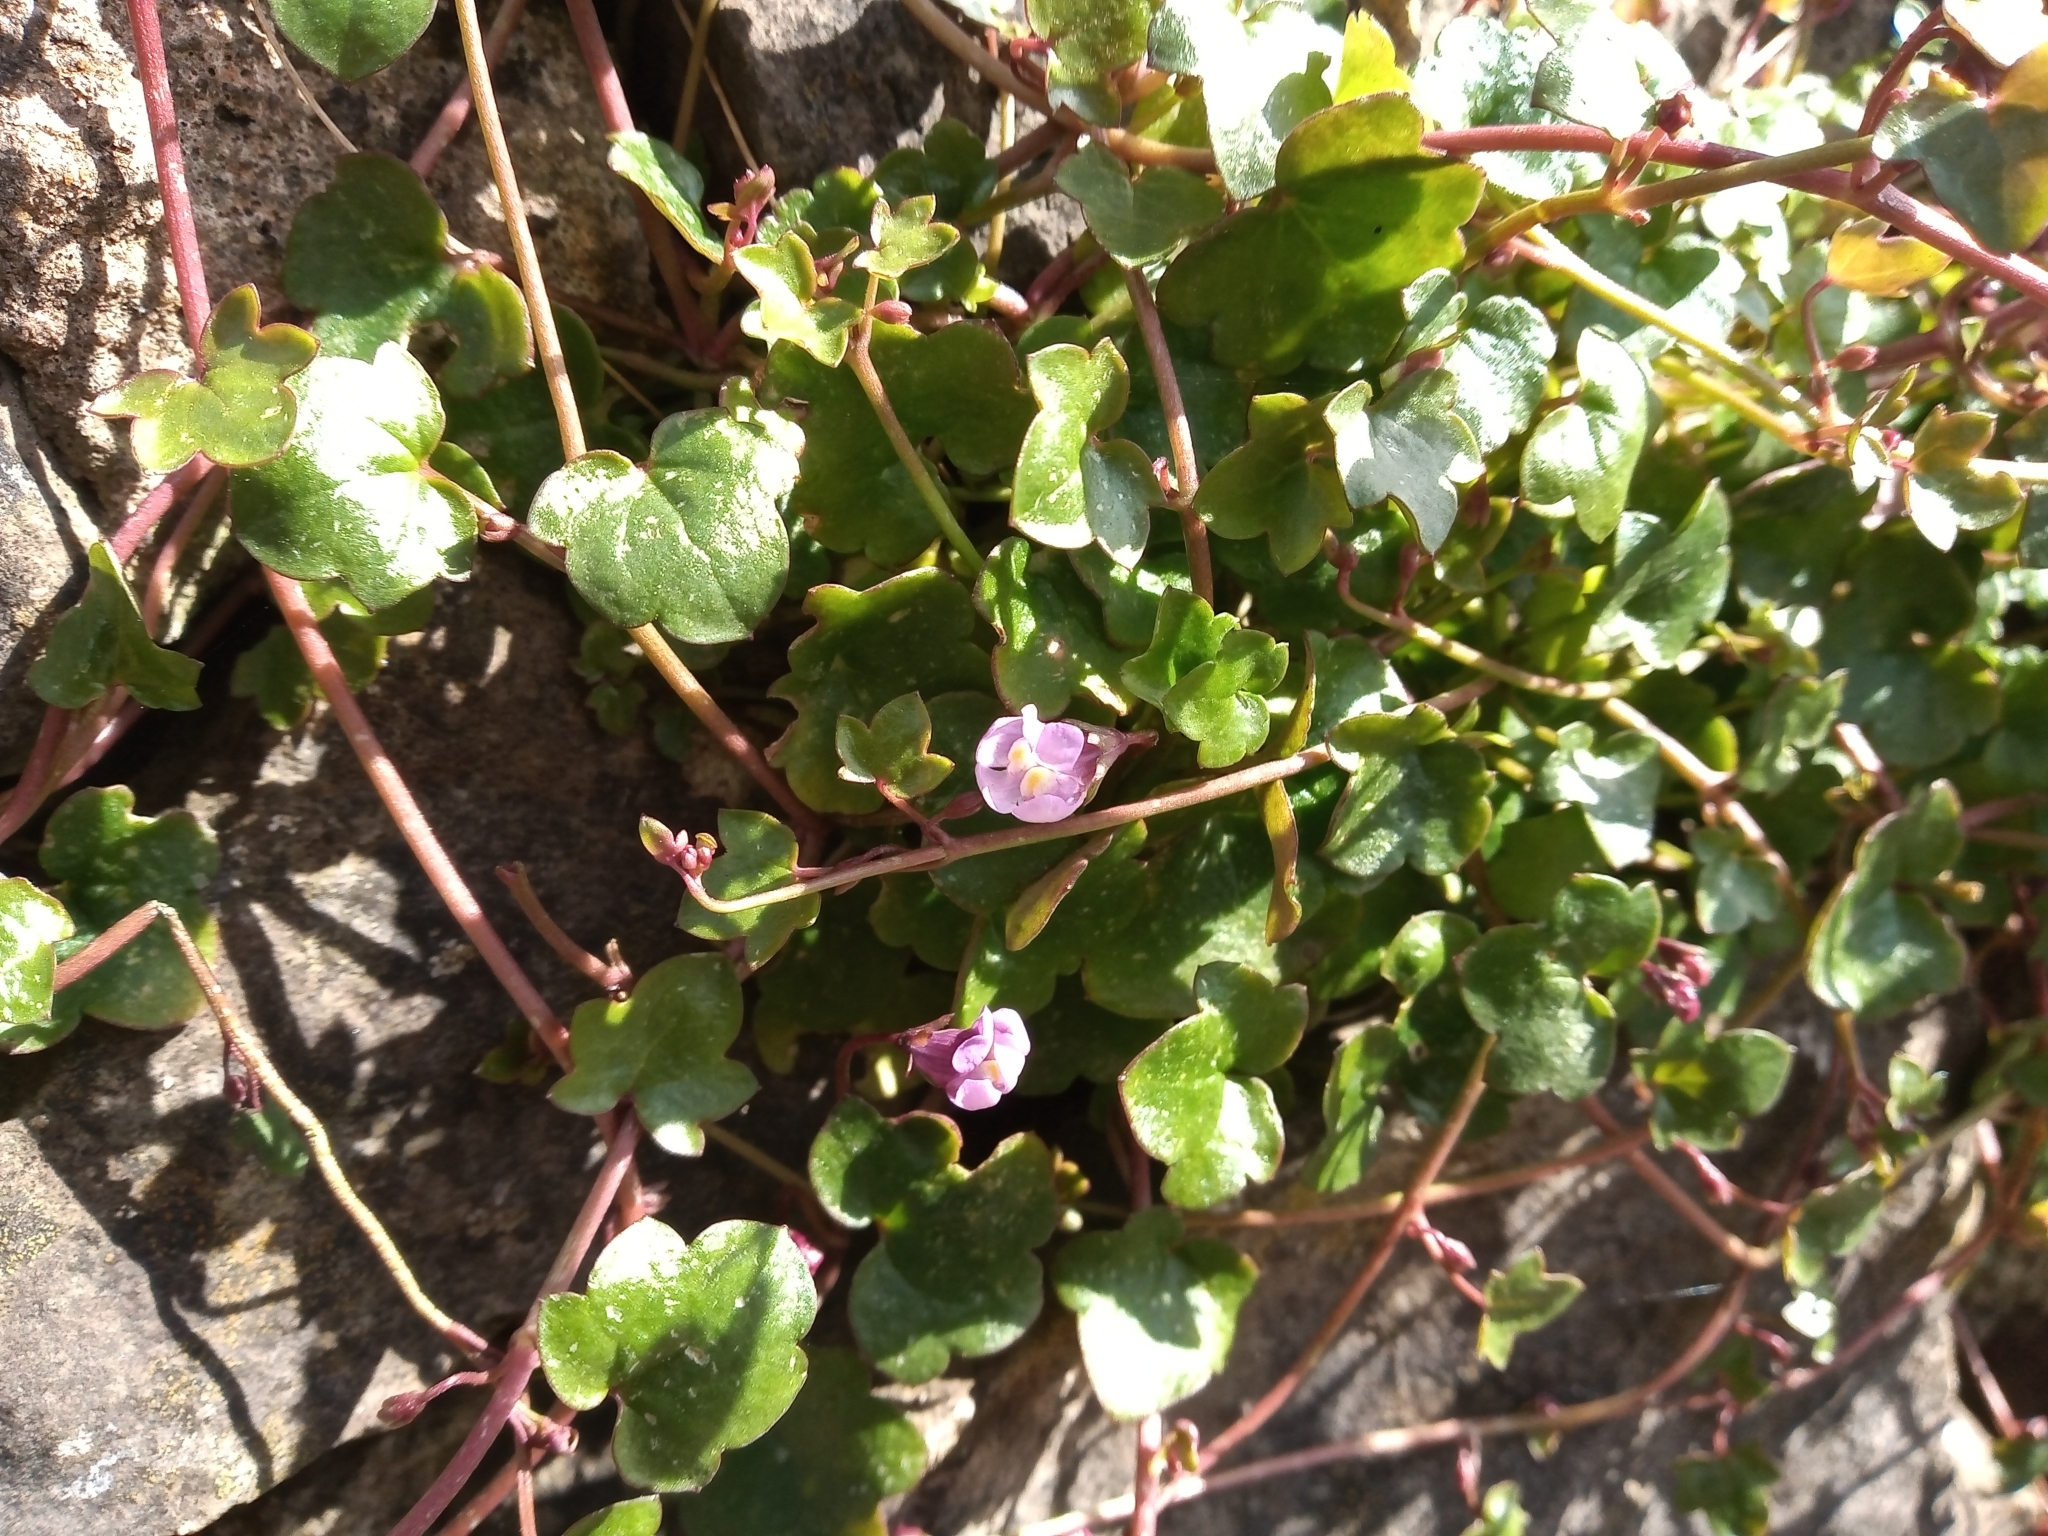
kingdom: Plantae
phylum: Tracheophyta
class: Magnoliopsida
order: Lamiales
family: Plantaginaceae
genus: Cymbalaria
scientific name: Cymbalaria muralis
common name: Ivy-leaved toadflax
